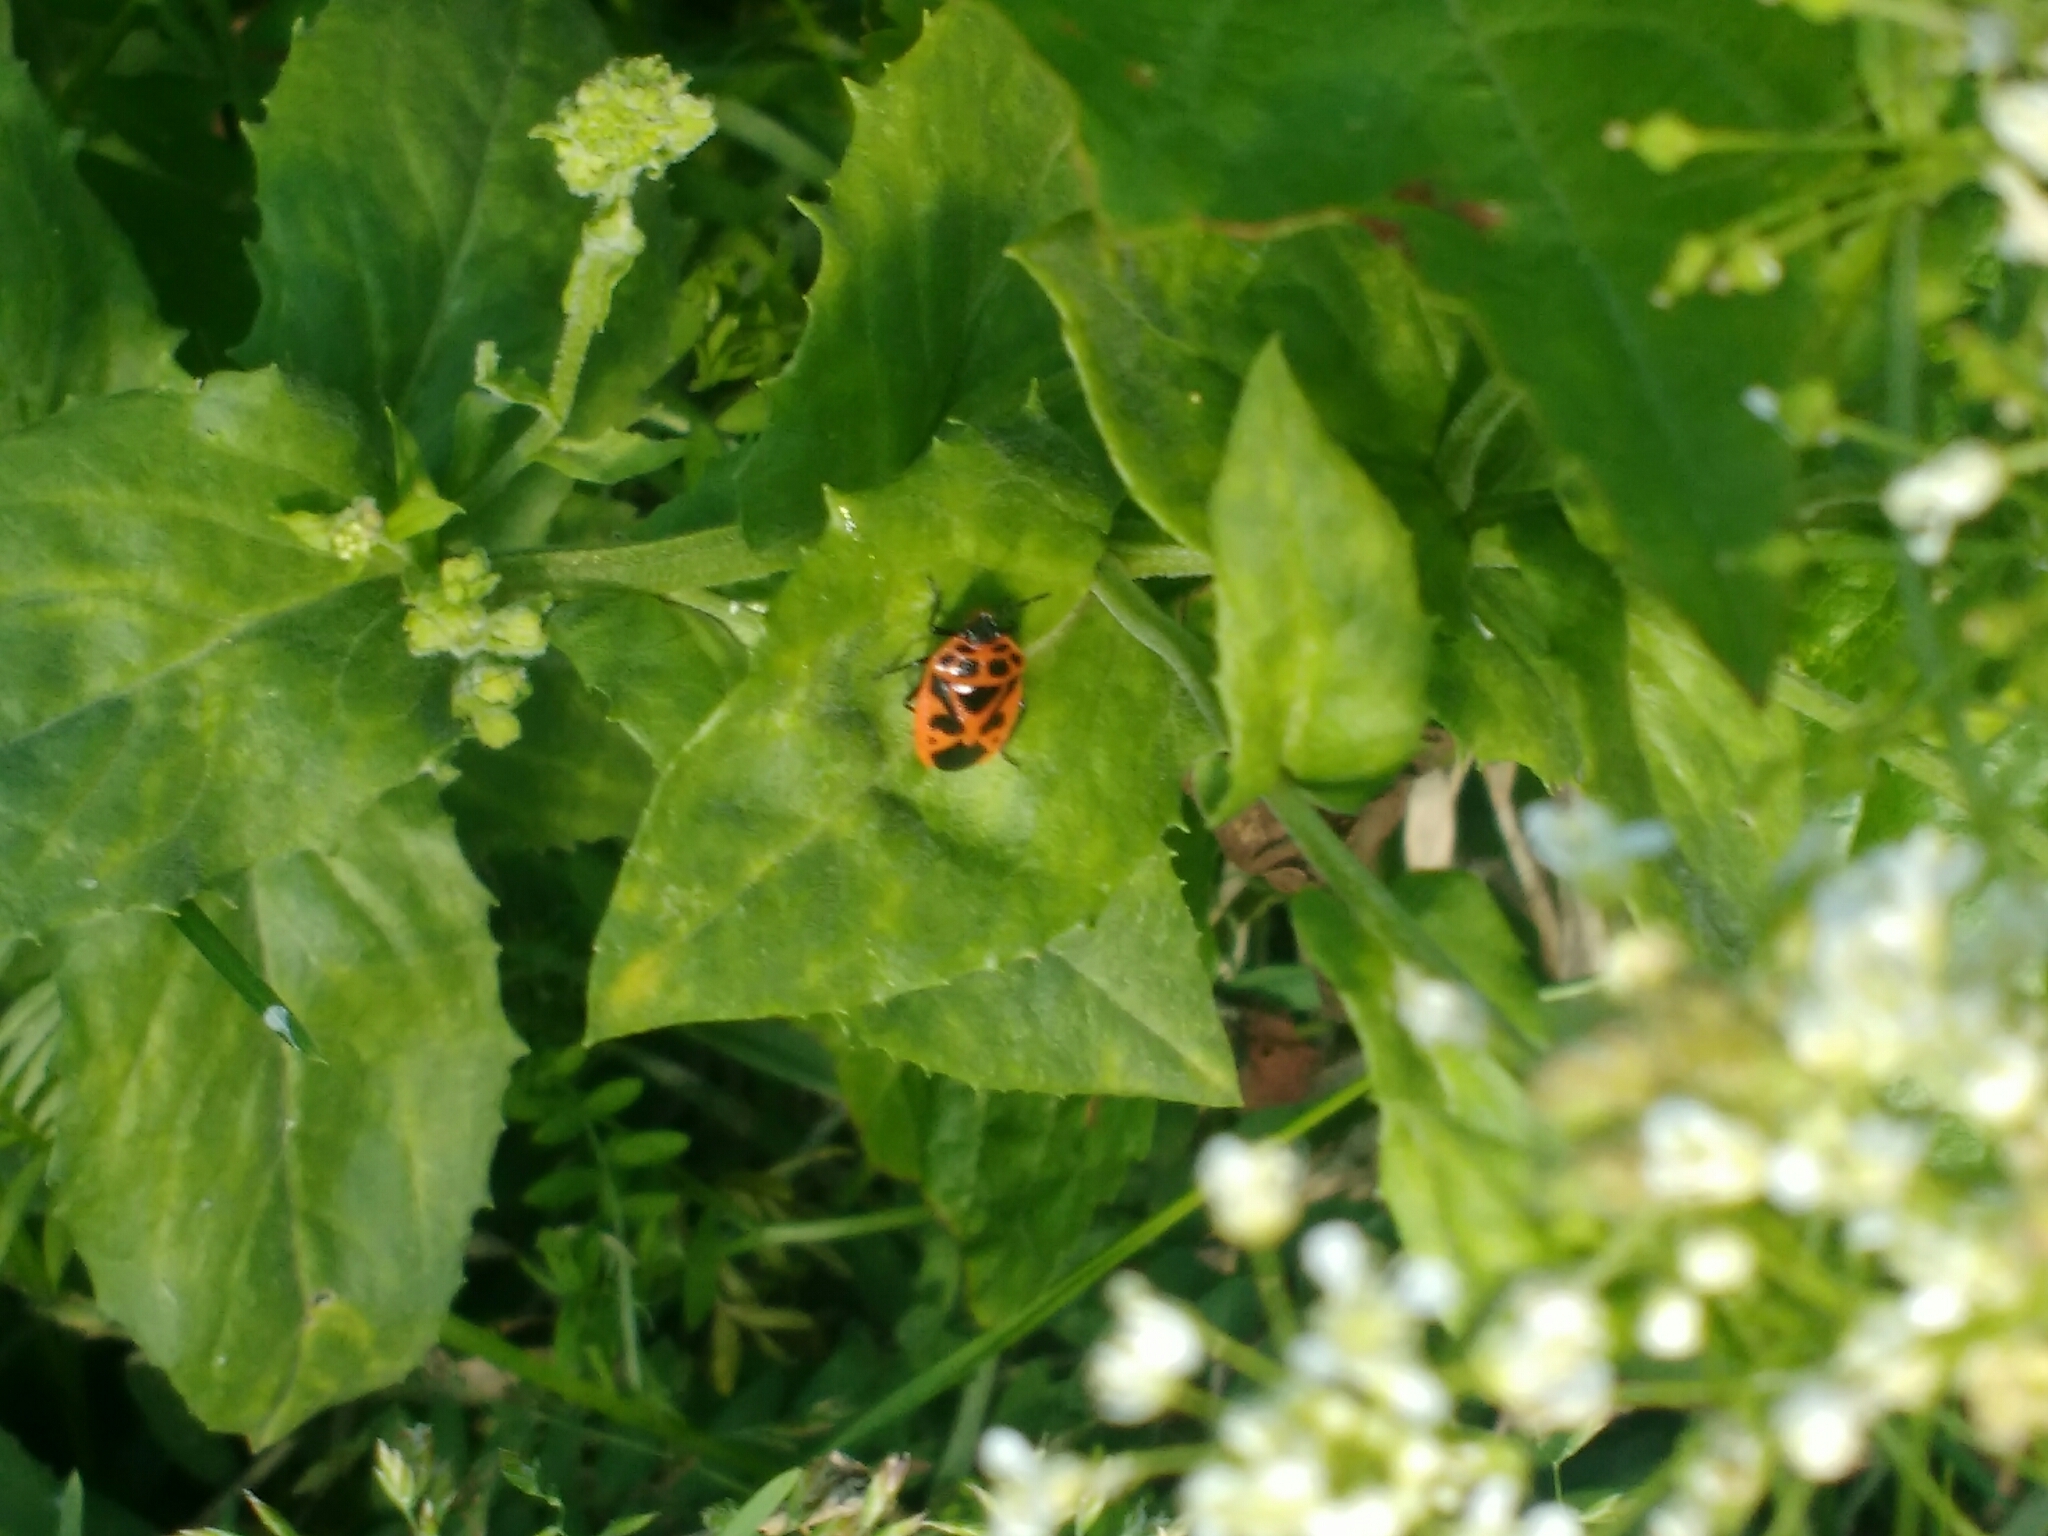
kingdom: Animalia
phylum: Arthropoda
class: Insecta
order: Hemiptera
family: Pentatomidae
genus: Eurydema
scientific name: Eurydema dominulus
